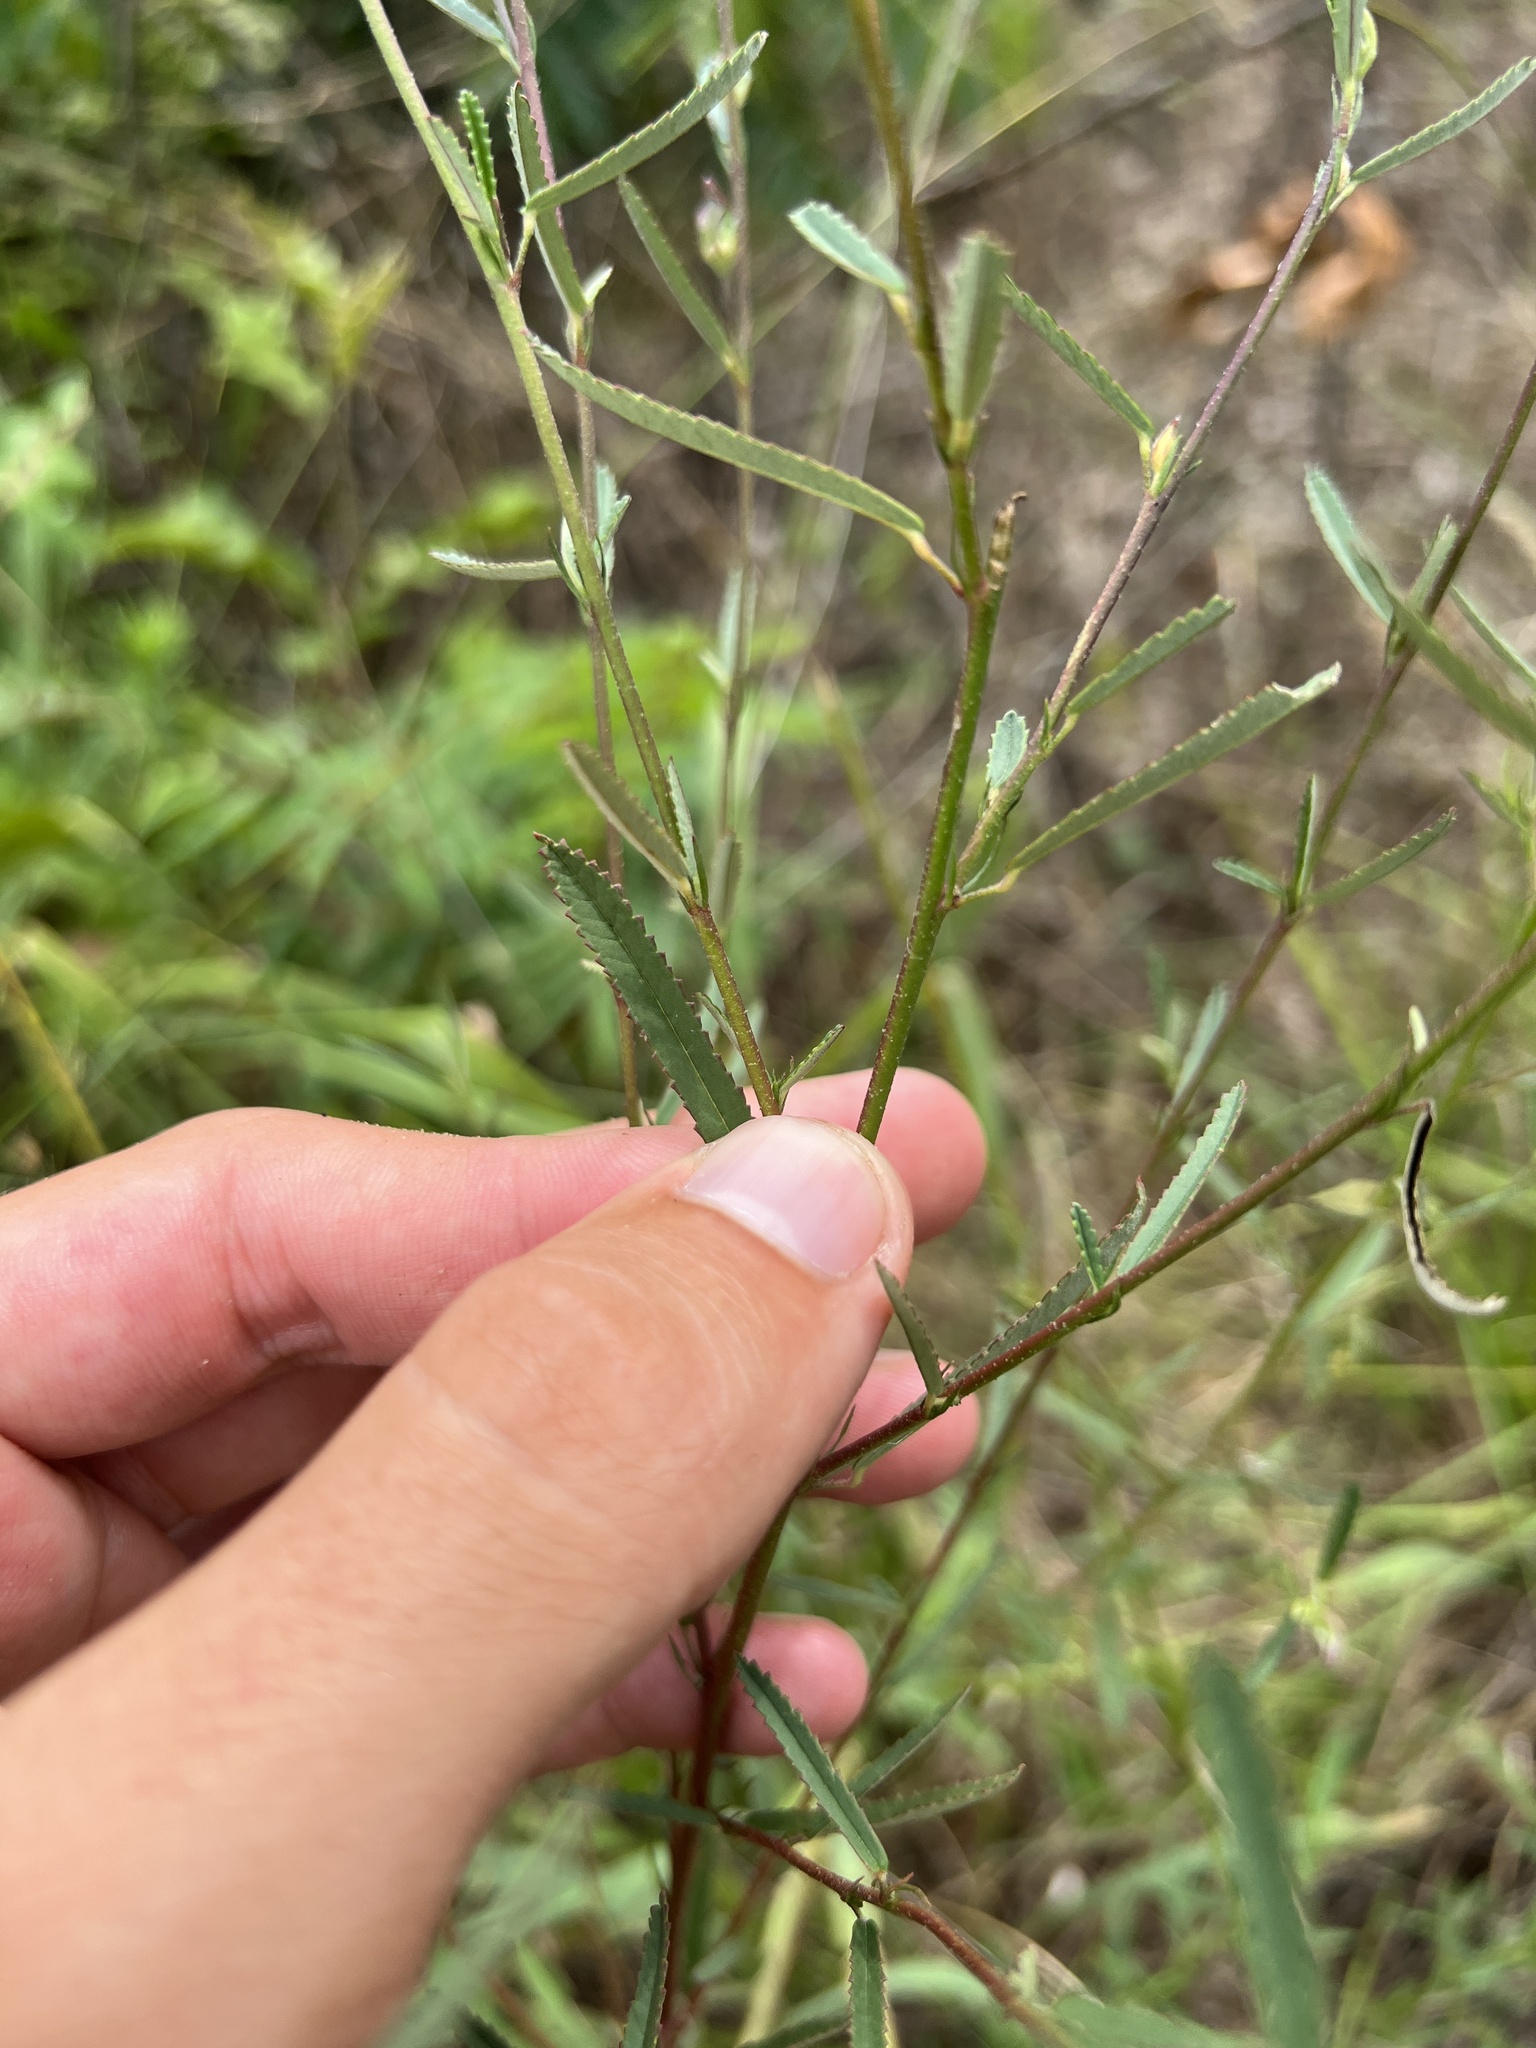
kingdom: Plantae
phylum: Tracheophyta
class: Magnoliopsida
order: Malvales
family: Malvaceae
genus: Sida
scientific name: Sida elliottii
